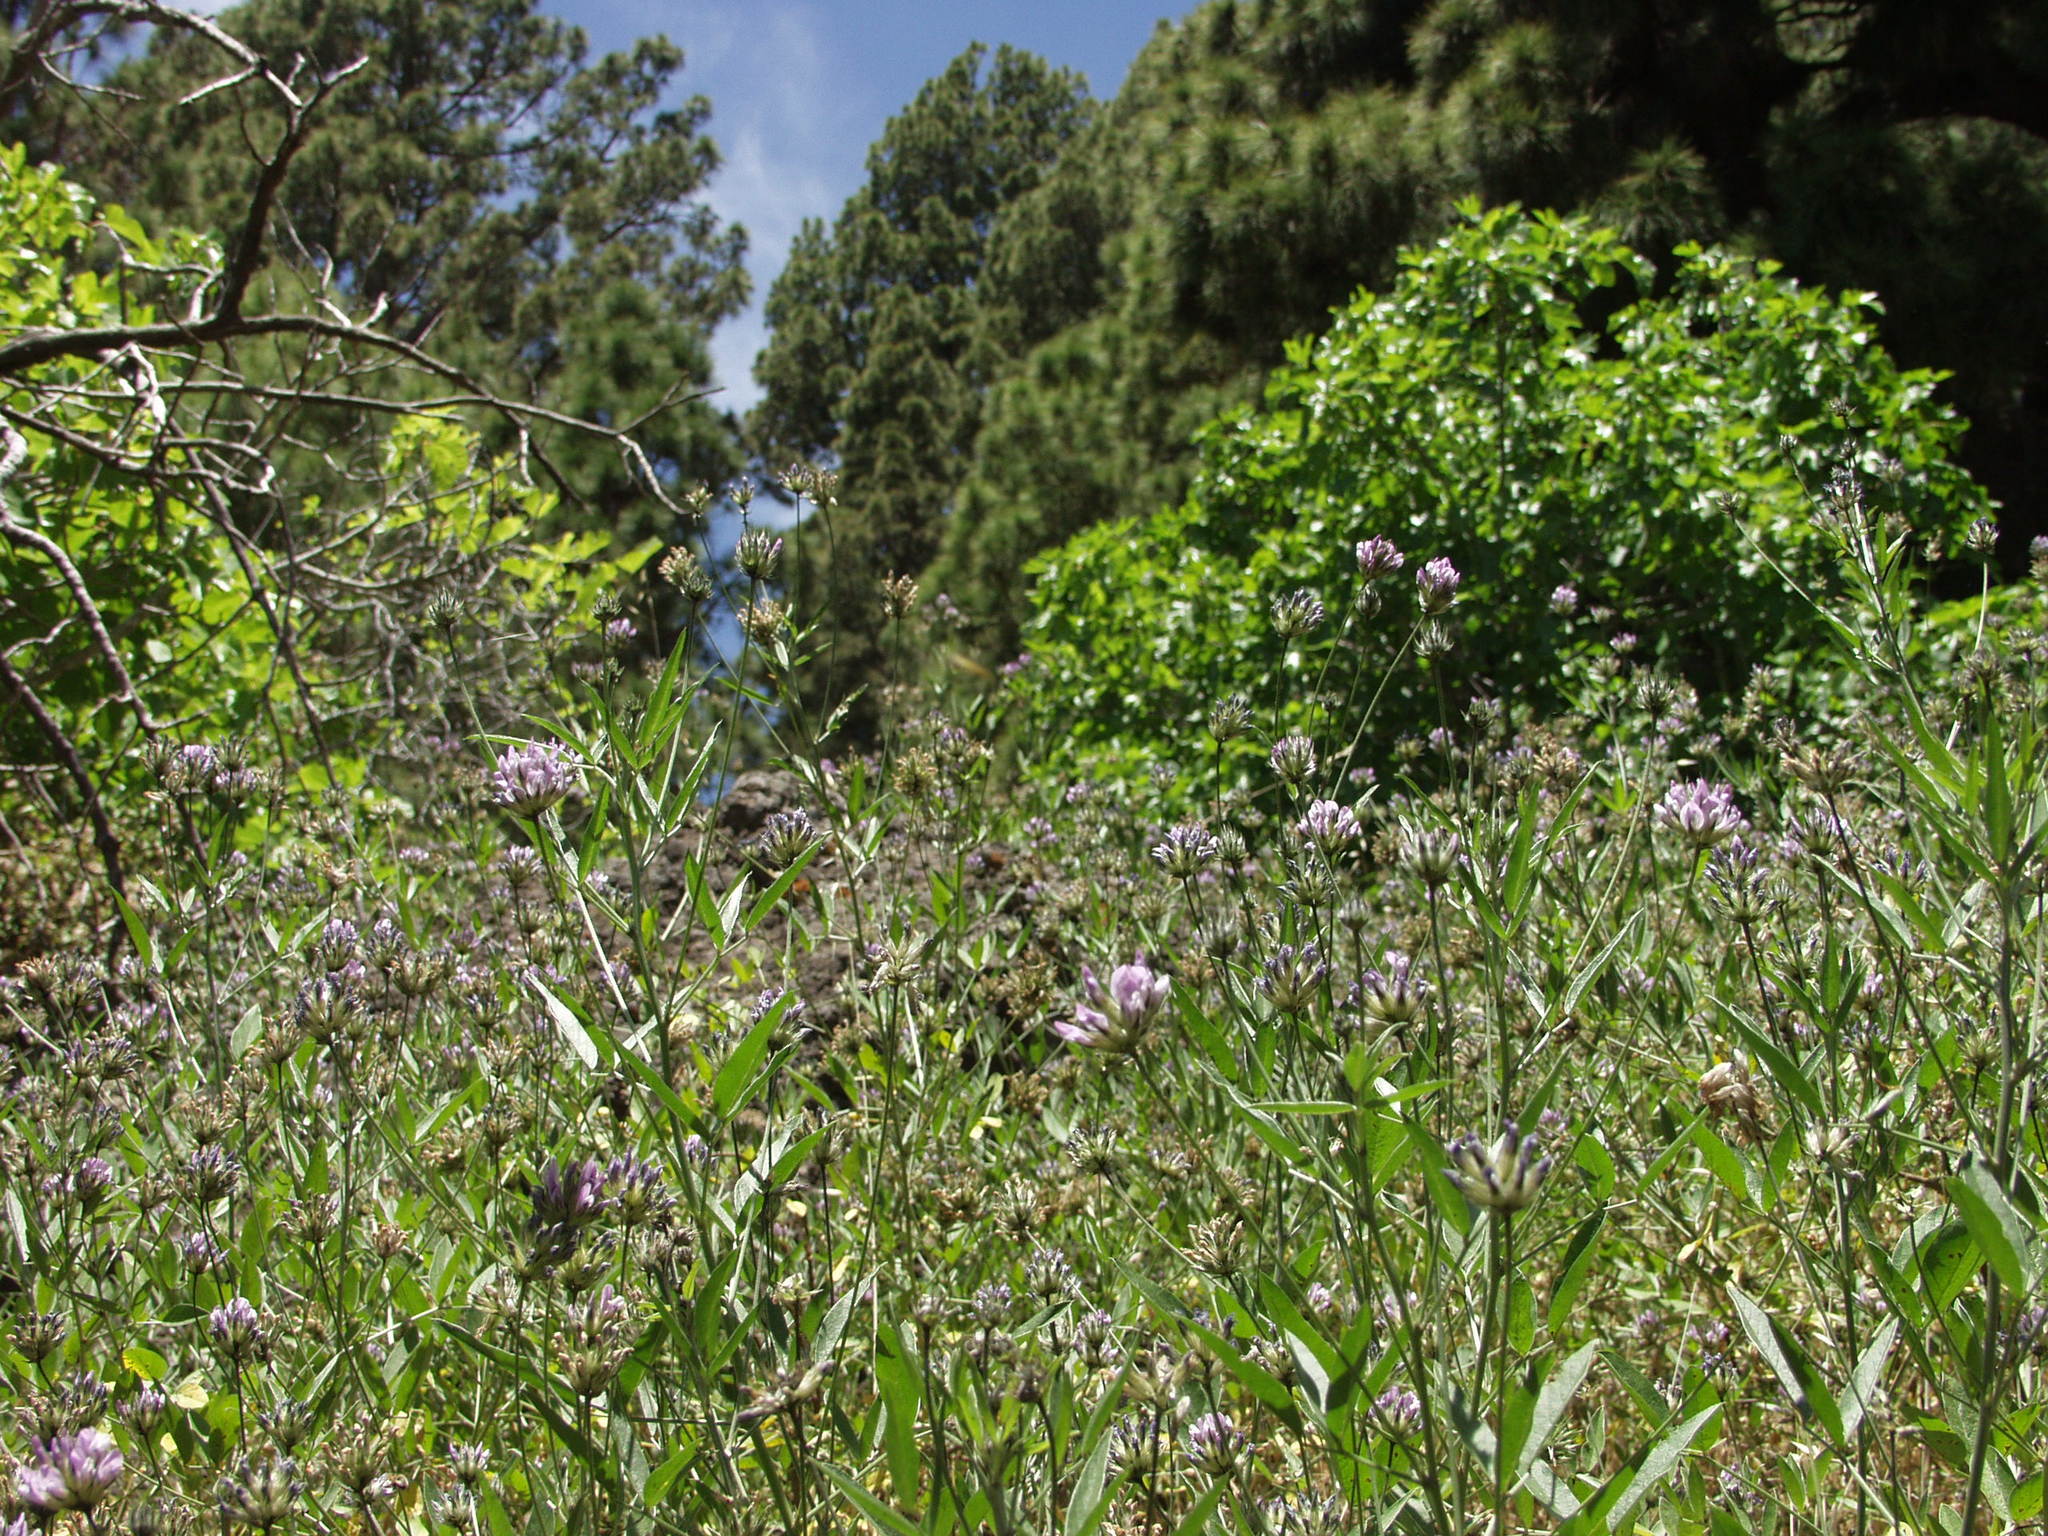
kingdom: Plantae
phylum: Tracheophyta
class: Magnoliopsida
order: Fabales
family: Fabaceae
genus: Bituminaria
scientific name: Bituminaria bituminosa
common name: Arabian pea
